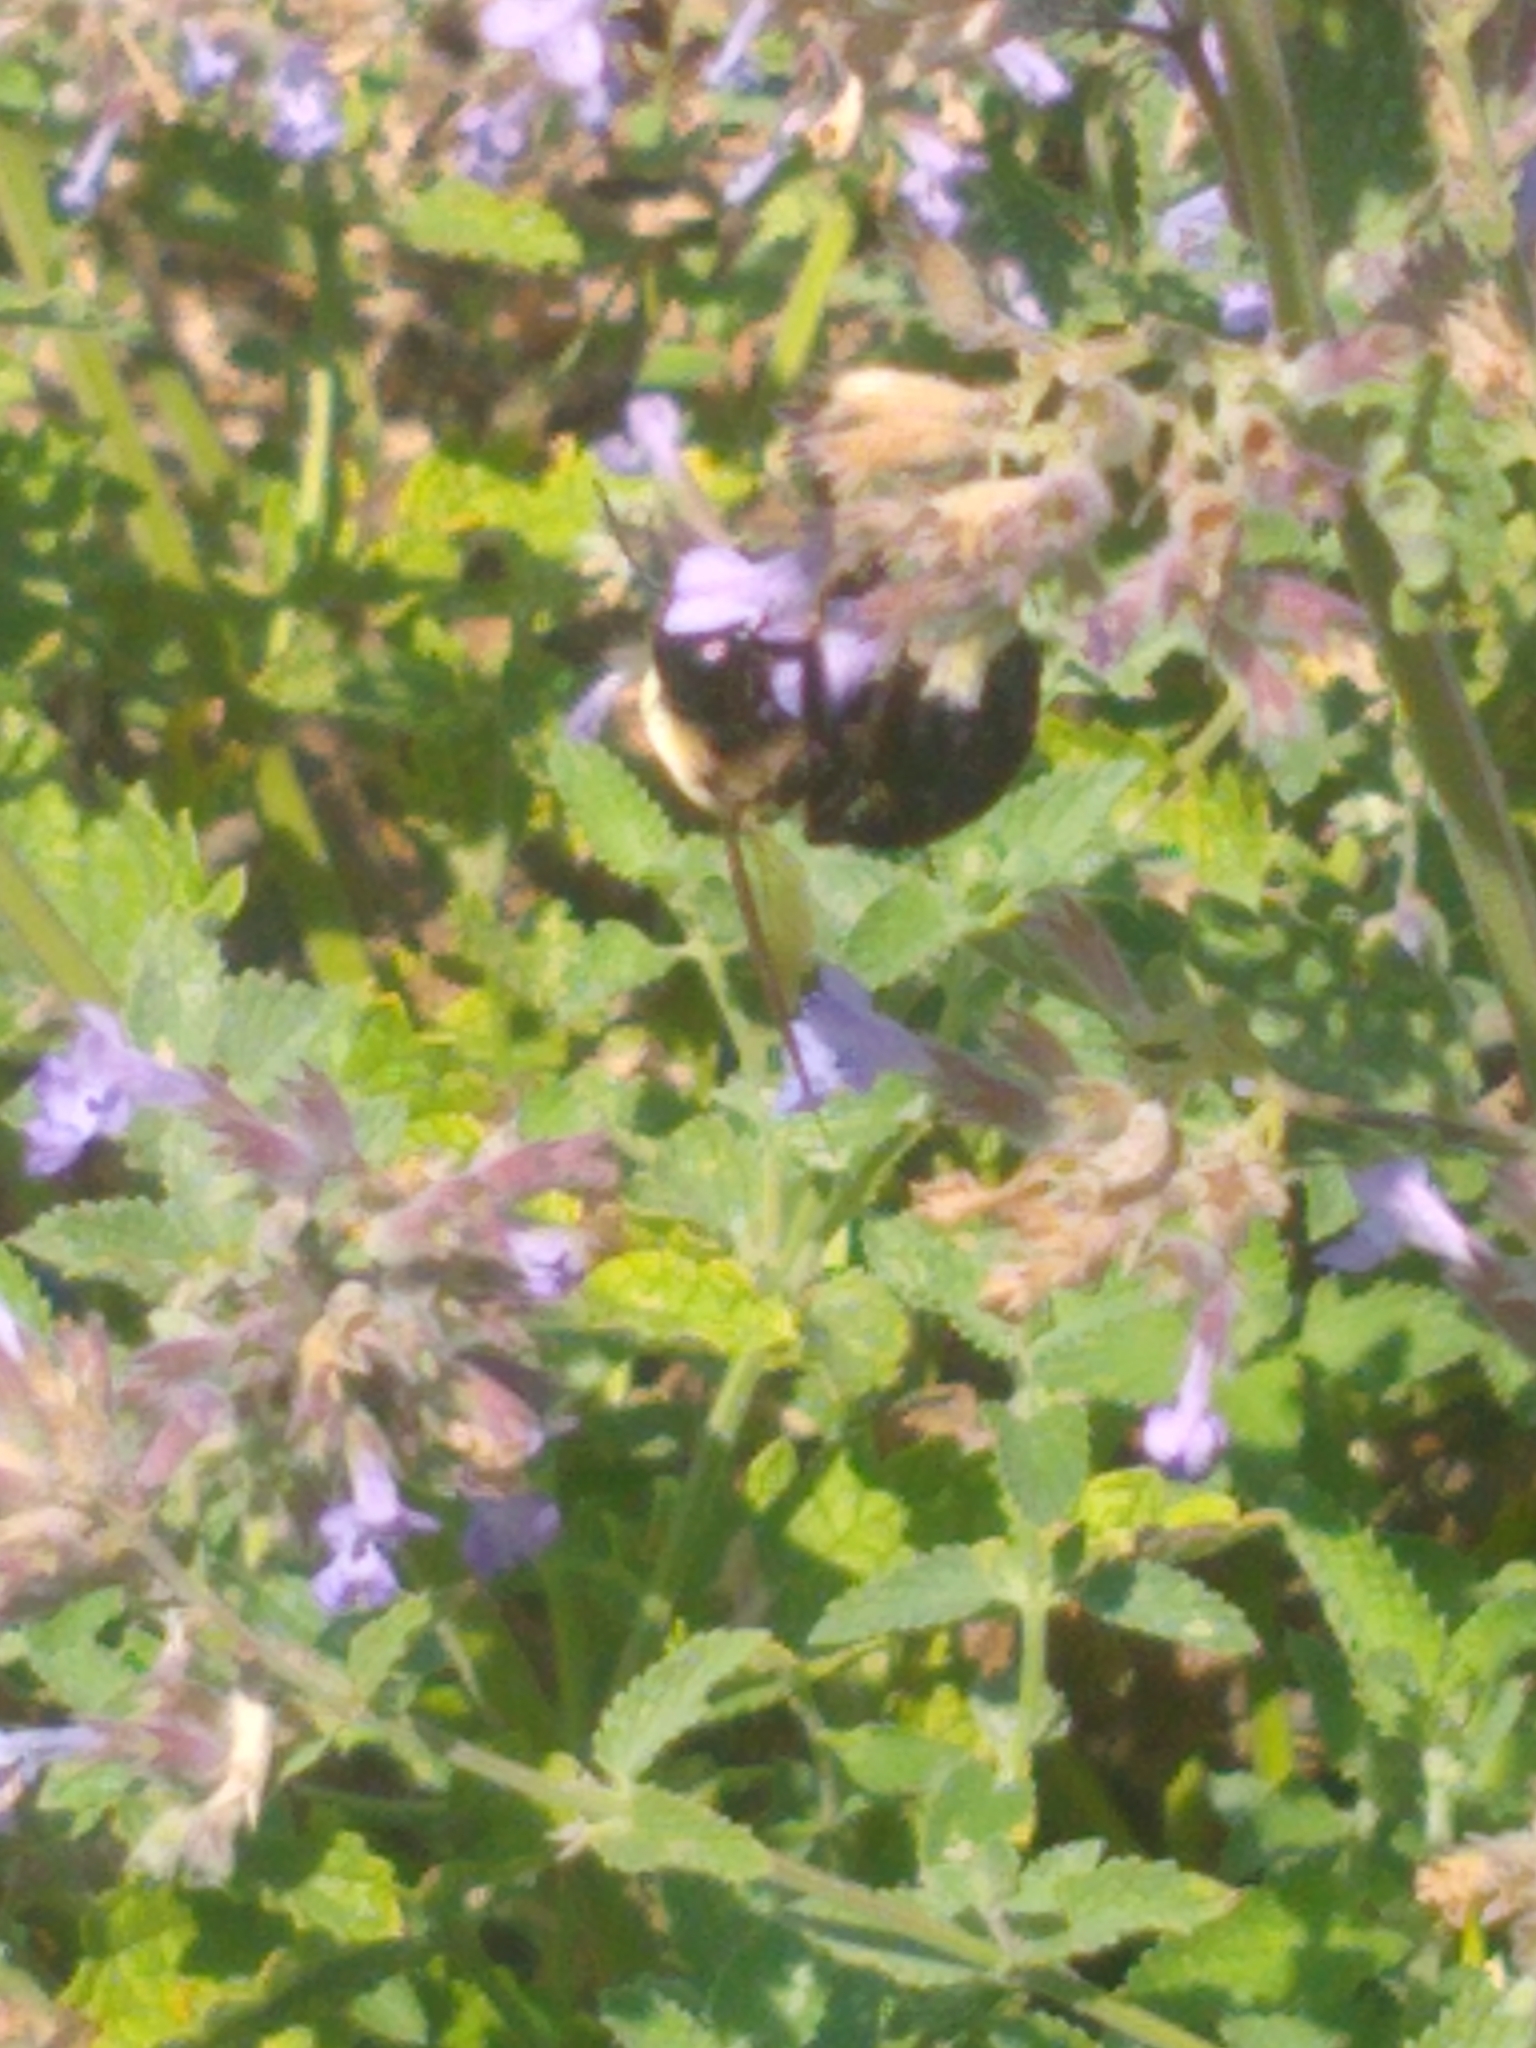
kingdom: Animalia
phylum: Arthropoda
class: Insecta
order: Hymenoptera
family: Apidae
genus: Xylocopa
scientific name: Xylocopa virginica
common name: Carpenter bee
